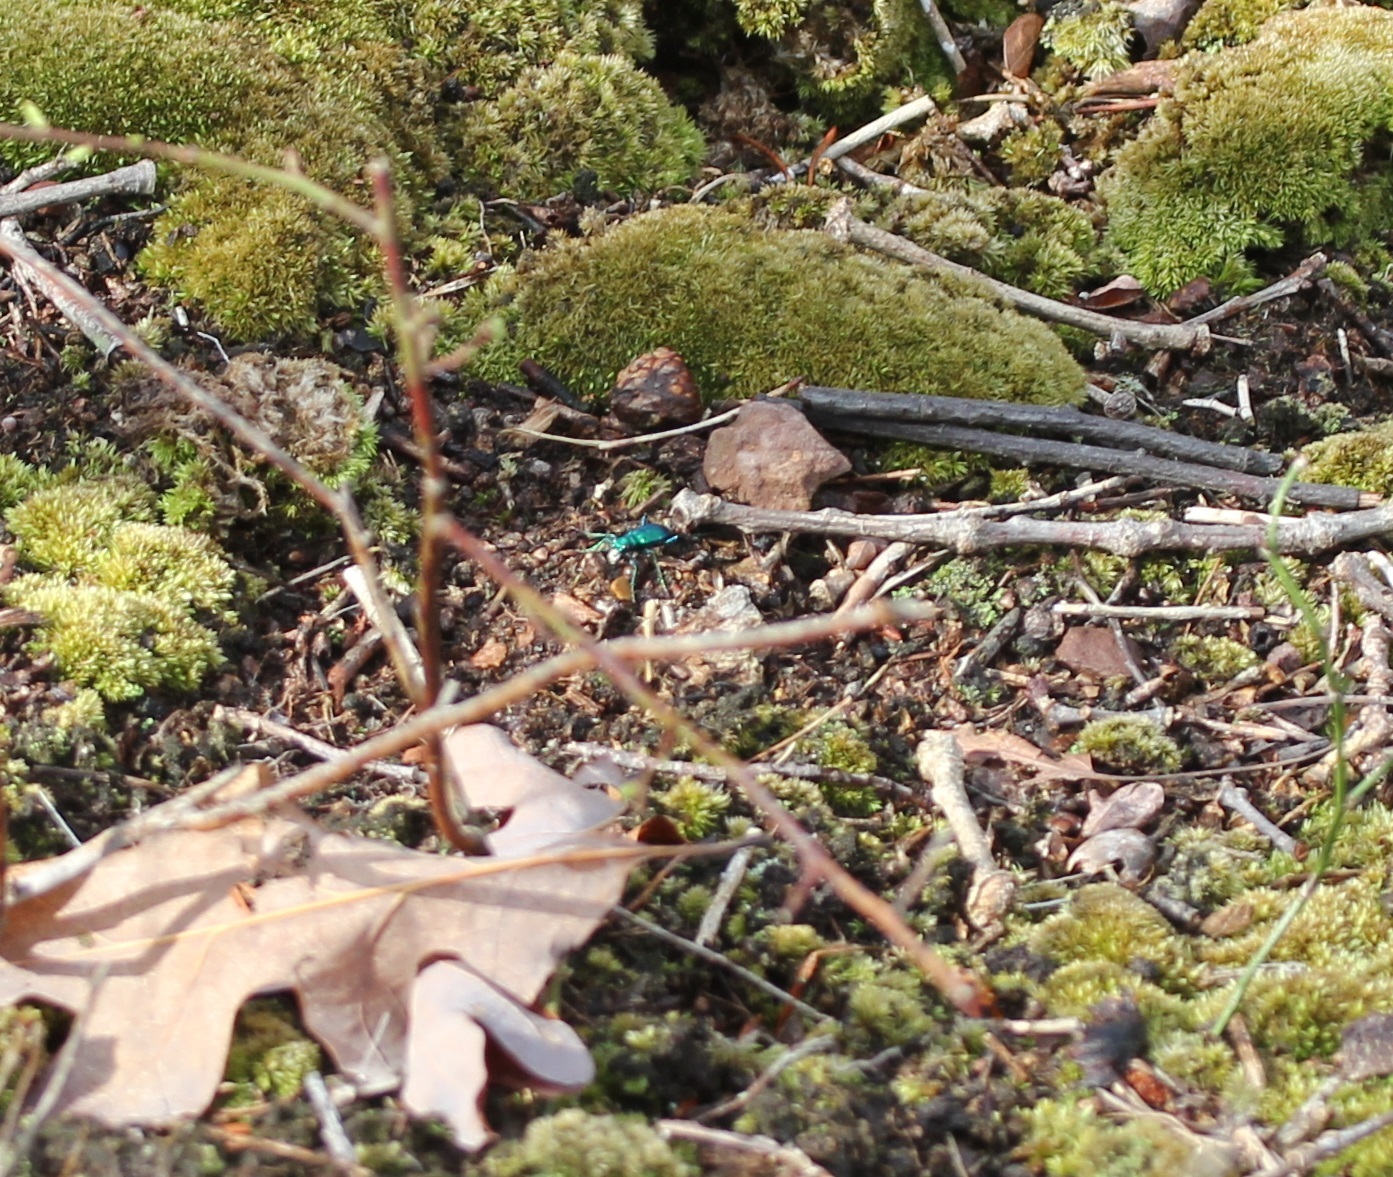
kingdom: Animalia
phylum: Arthropoda
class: Insecta
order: Coleoptera
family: Carabidae
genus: Cicindela
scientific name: Cicindela sexguttata
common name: Six-spotted tiger beetle
